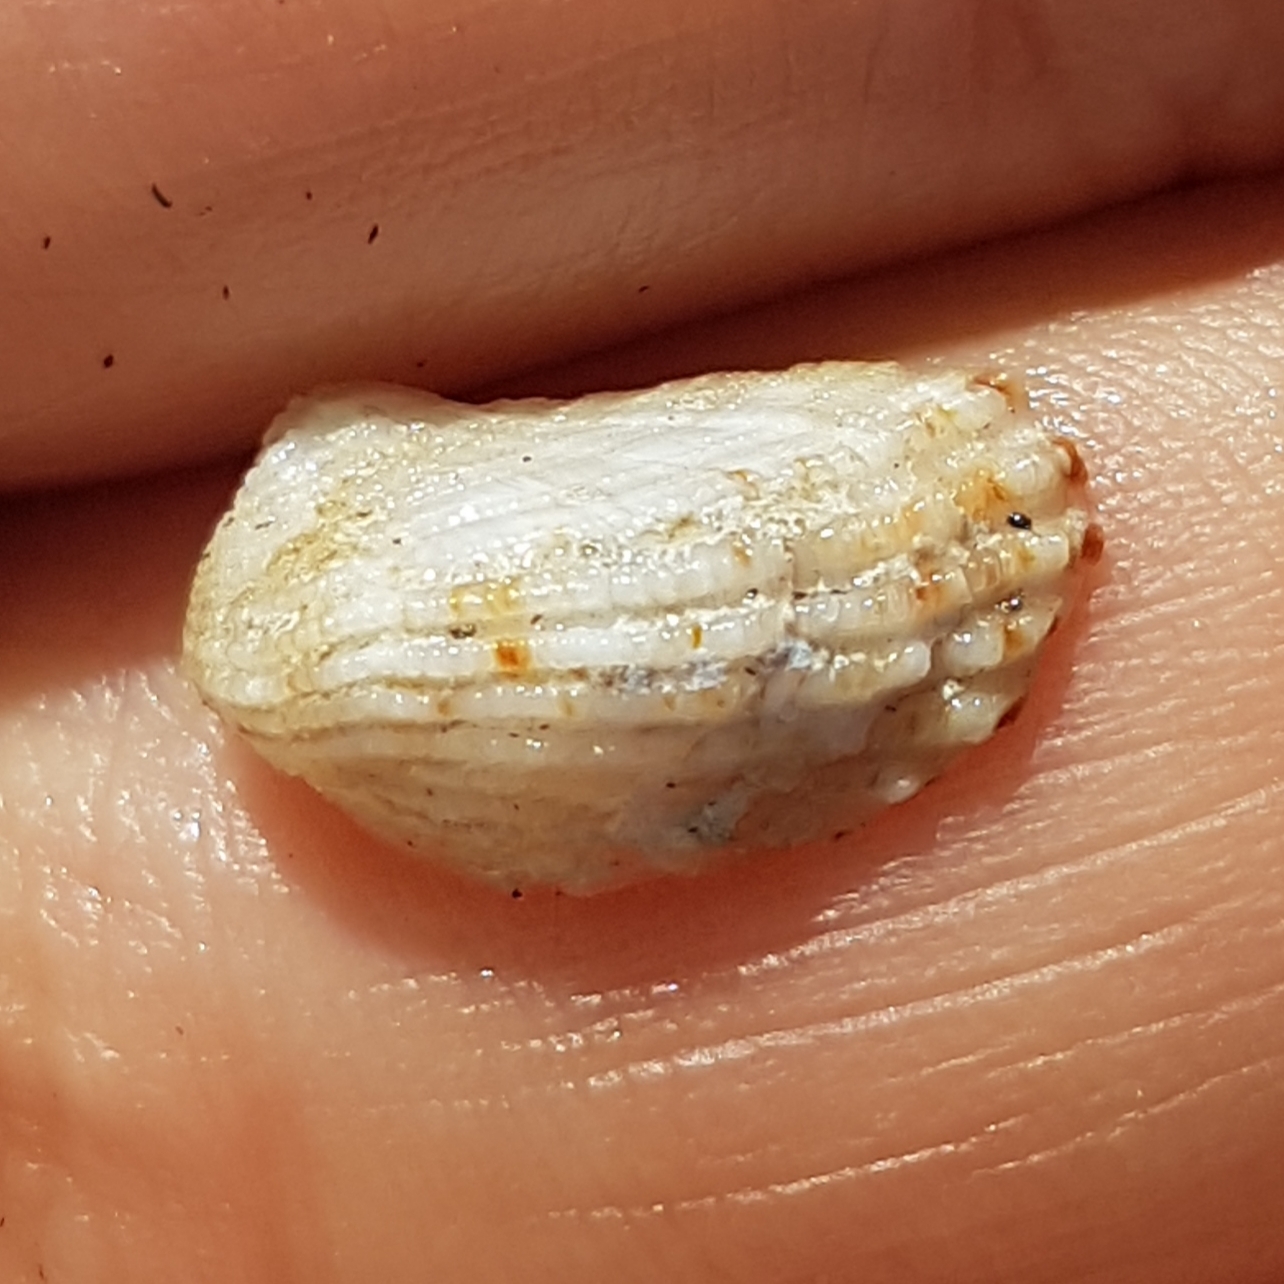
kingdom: Animalia
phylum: Mollusca
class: Bivalvia
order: Carditida
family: Carditidae
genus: Cardita
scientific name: Cardita calyculata
